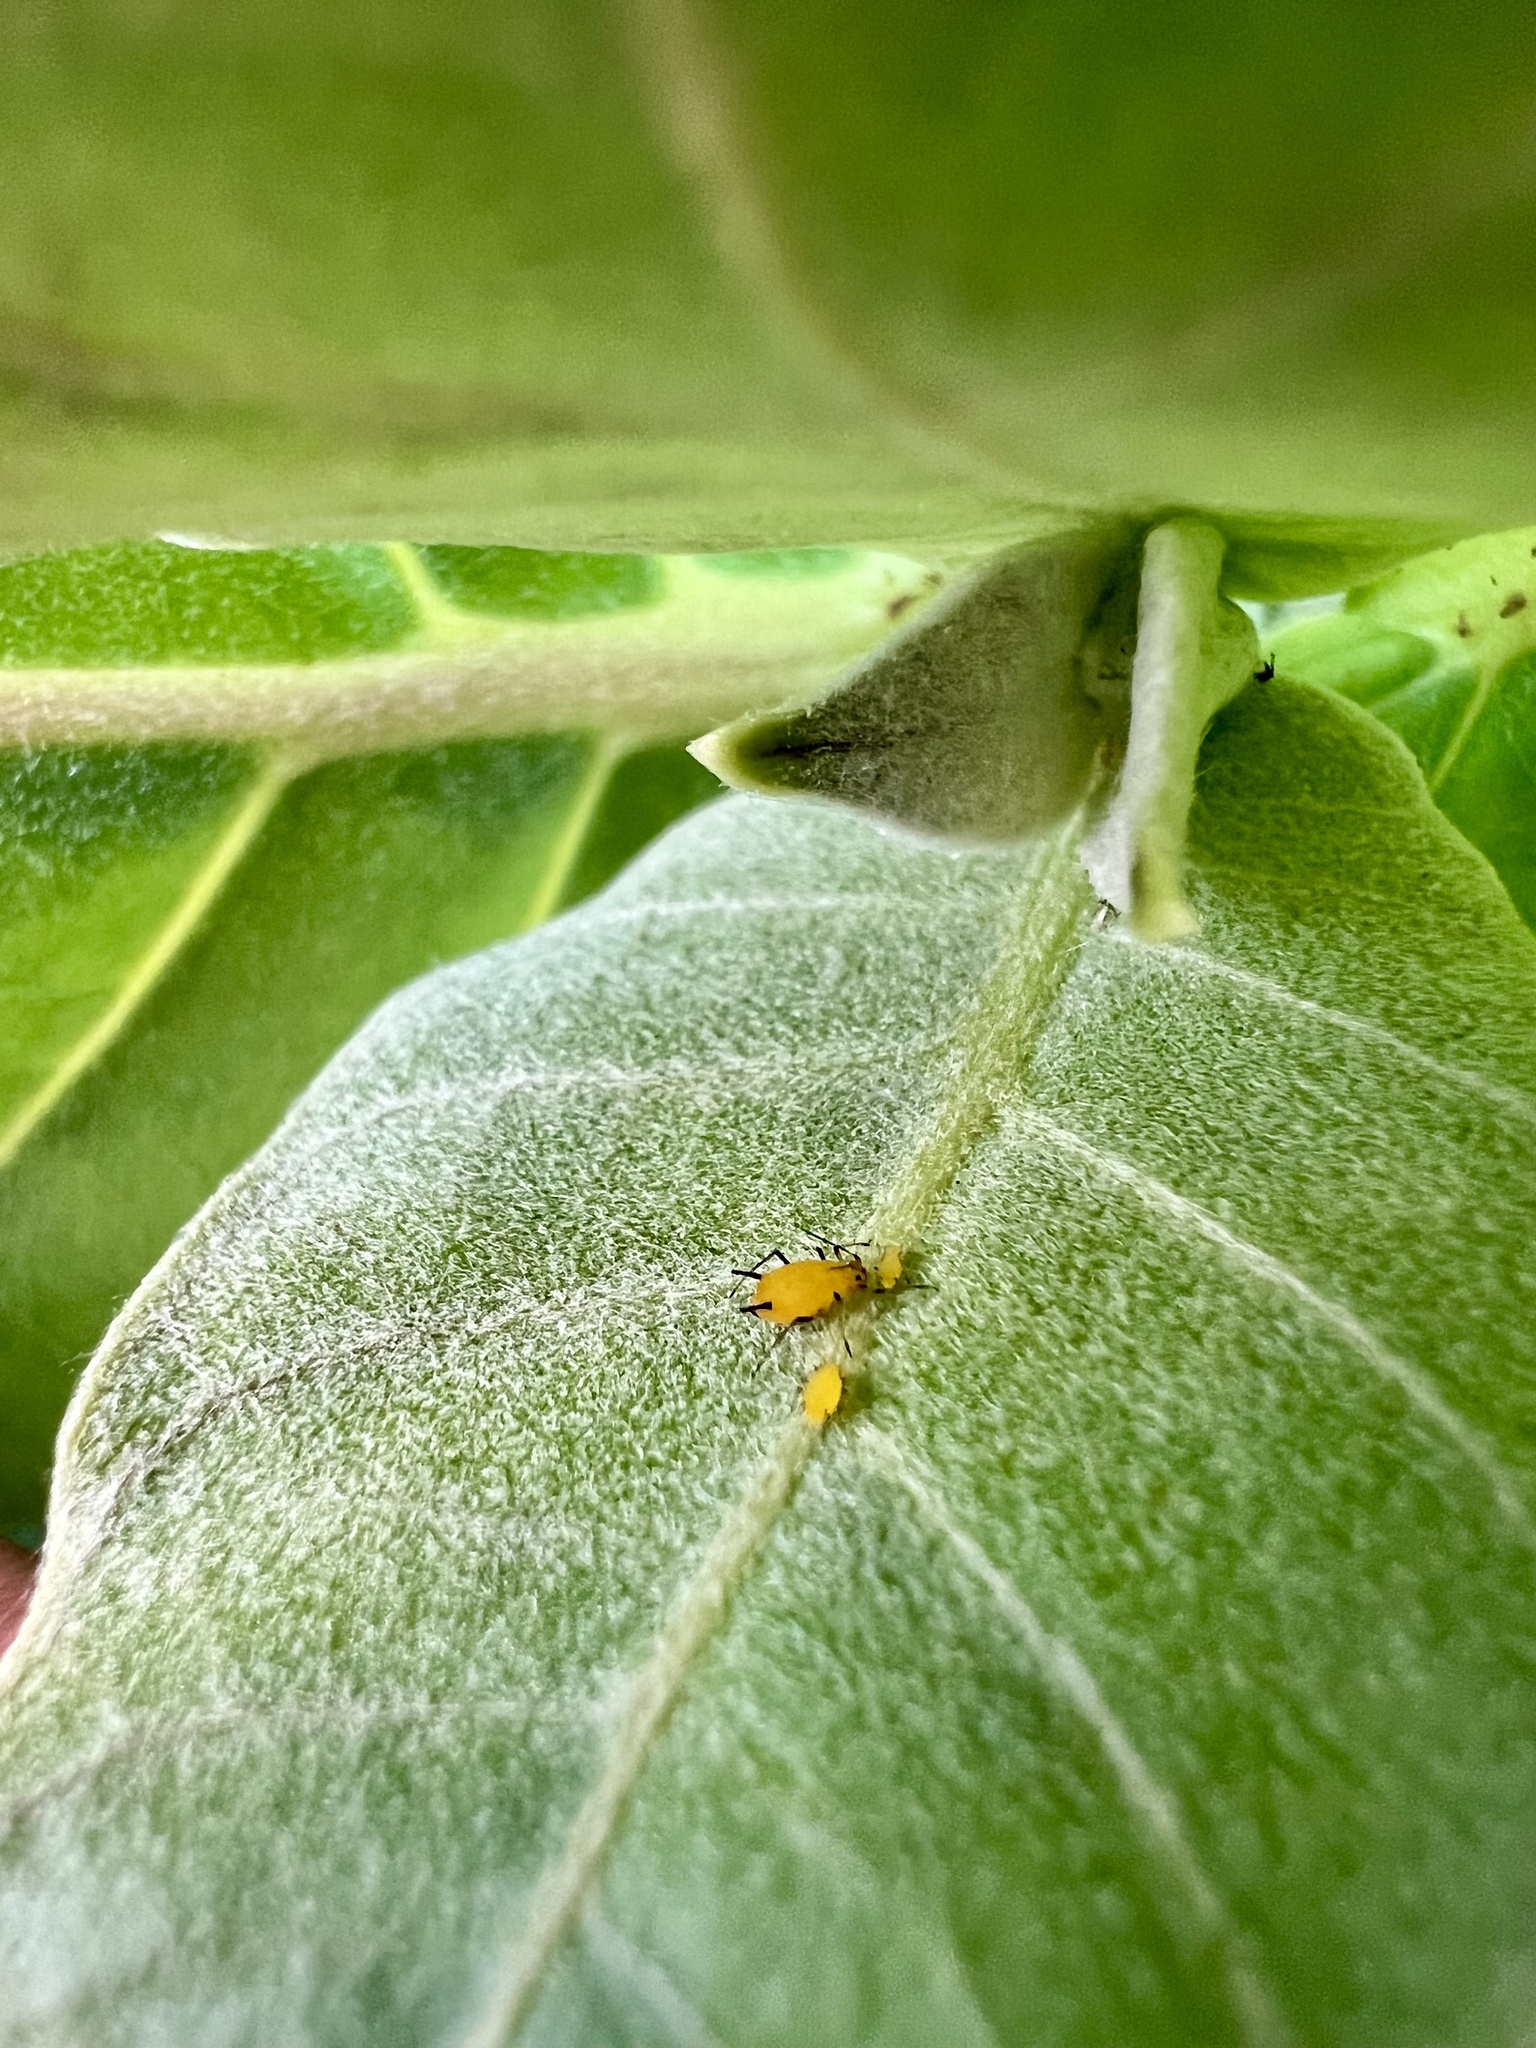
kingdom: Plantae
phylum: Tracheophyta
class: Magnoliopsida
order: Gentianales
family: Apocynaceae
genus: Calotropis
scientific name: Calotropis procera
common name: Roostertree
